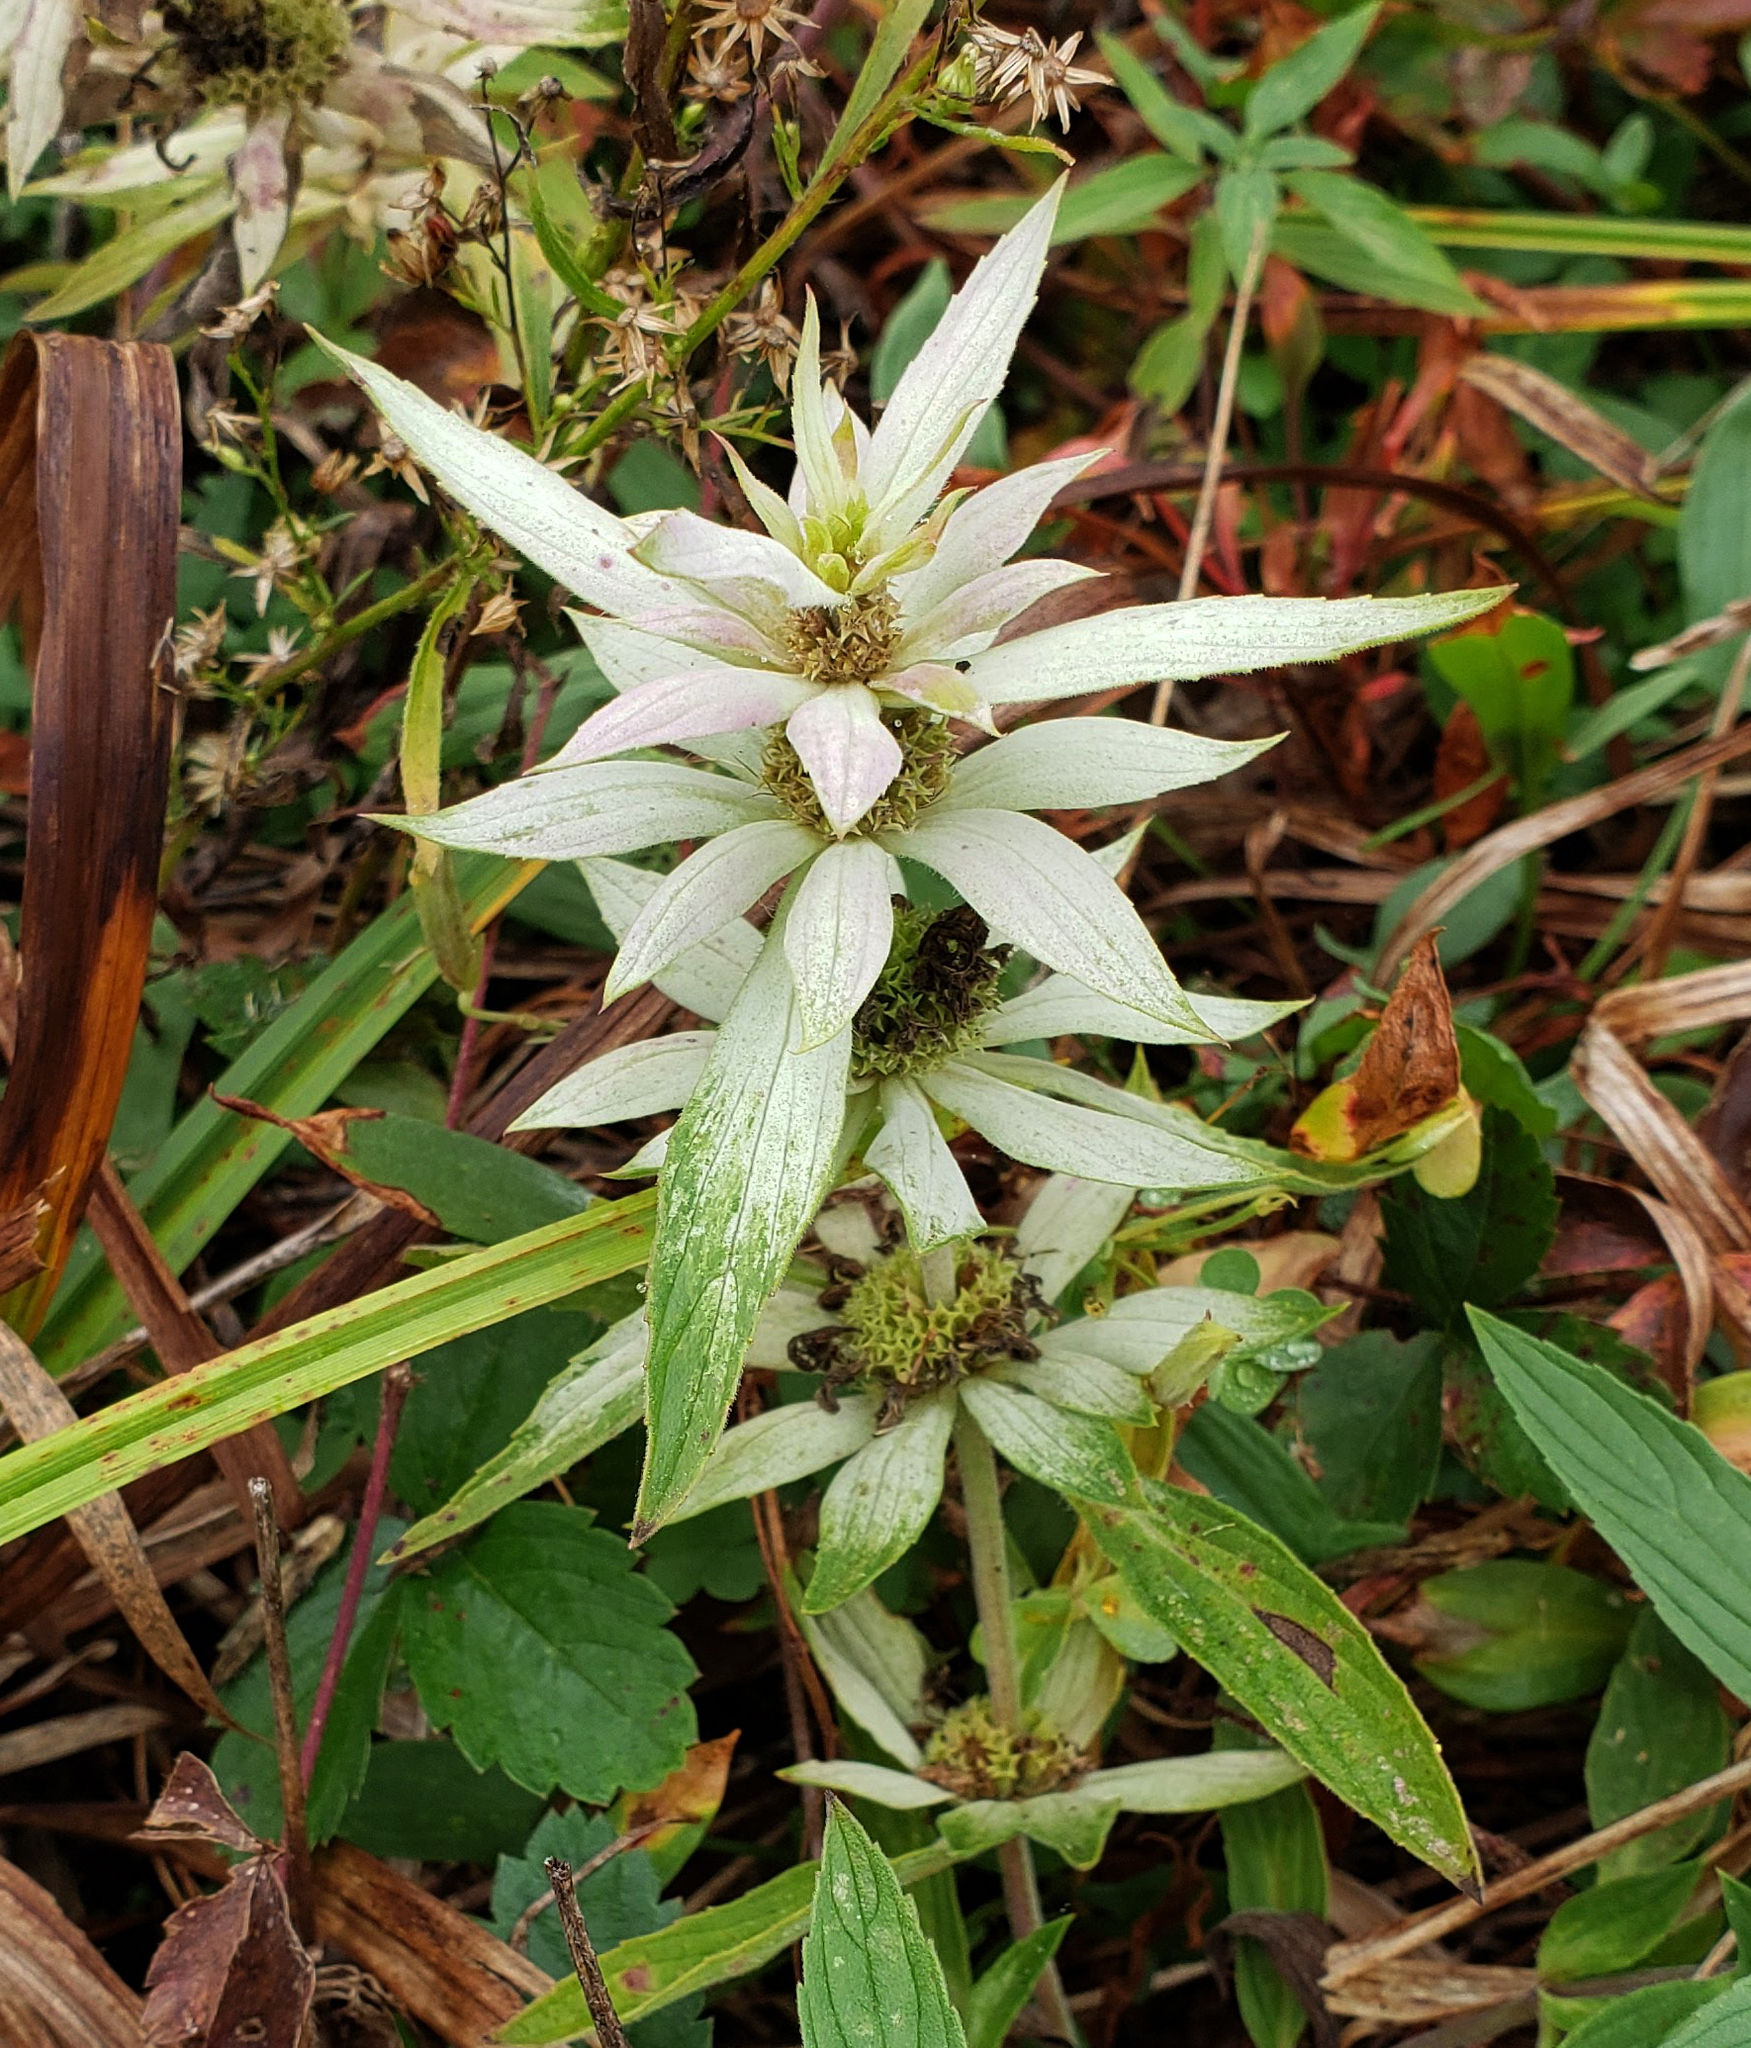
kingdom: Plantae
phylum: Tracheophyta
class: Magnoliopsida
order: Lamiales
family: Lamiaceae
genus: Monarda
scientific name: Monarda punctata
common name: Dotted monarda
